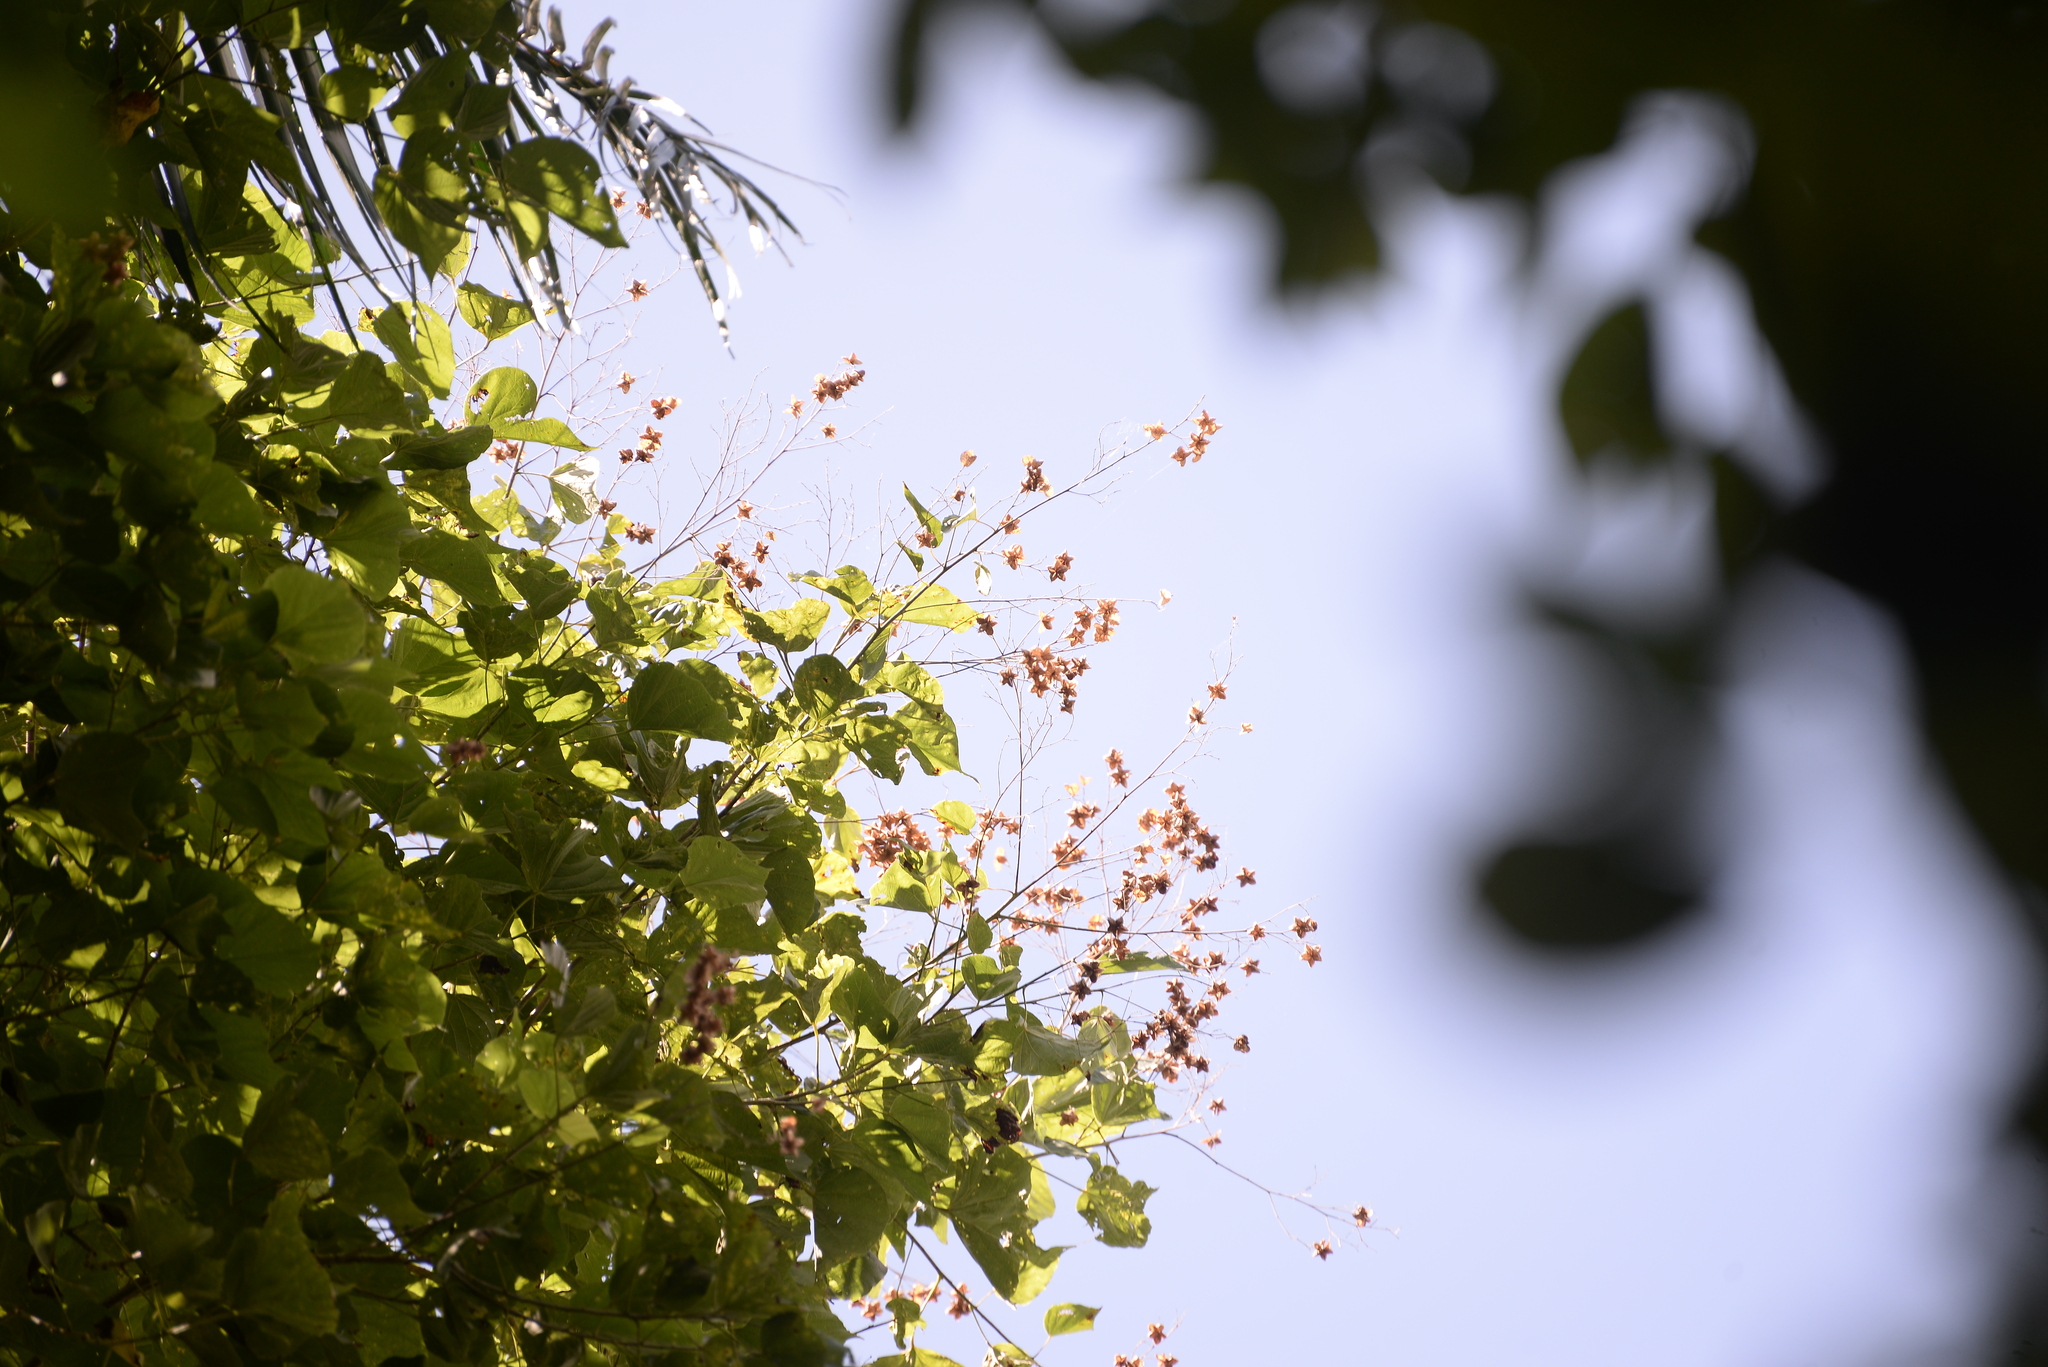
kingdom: Plantae
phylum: Tracheophyta
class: Magnoliopsida
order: Malvales
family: Malvaceae
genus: Kleinhovia
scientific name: Kleinhovia hospita
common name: Guest-tree
